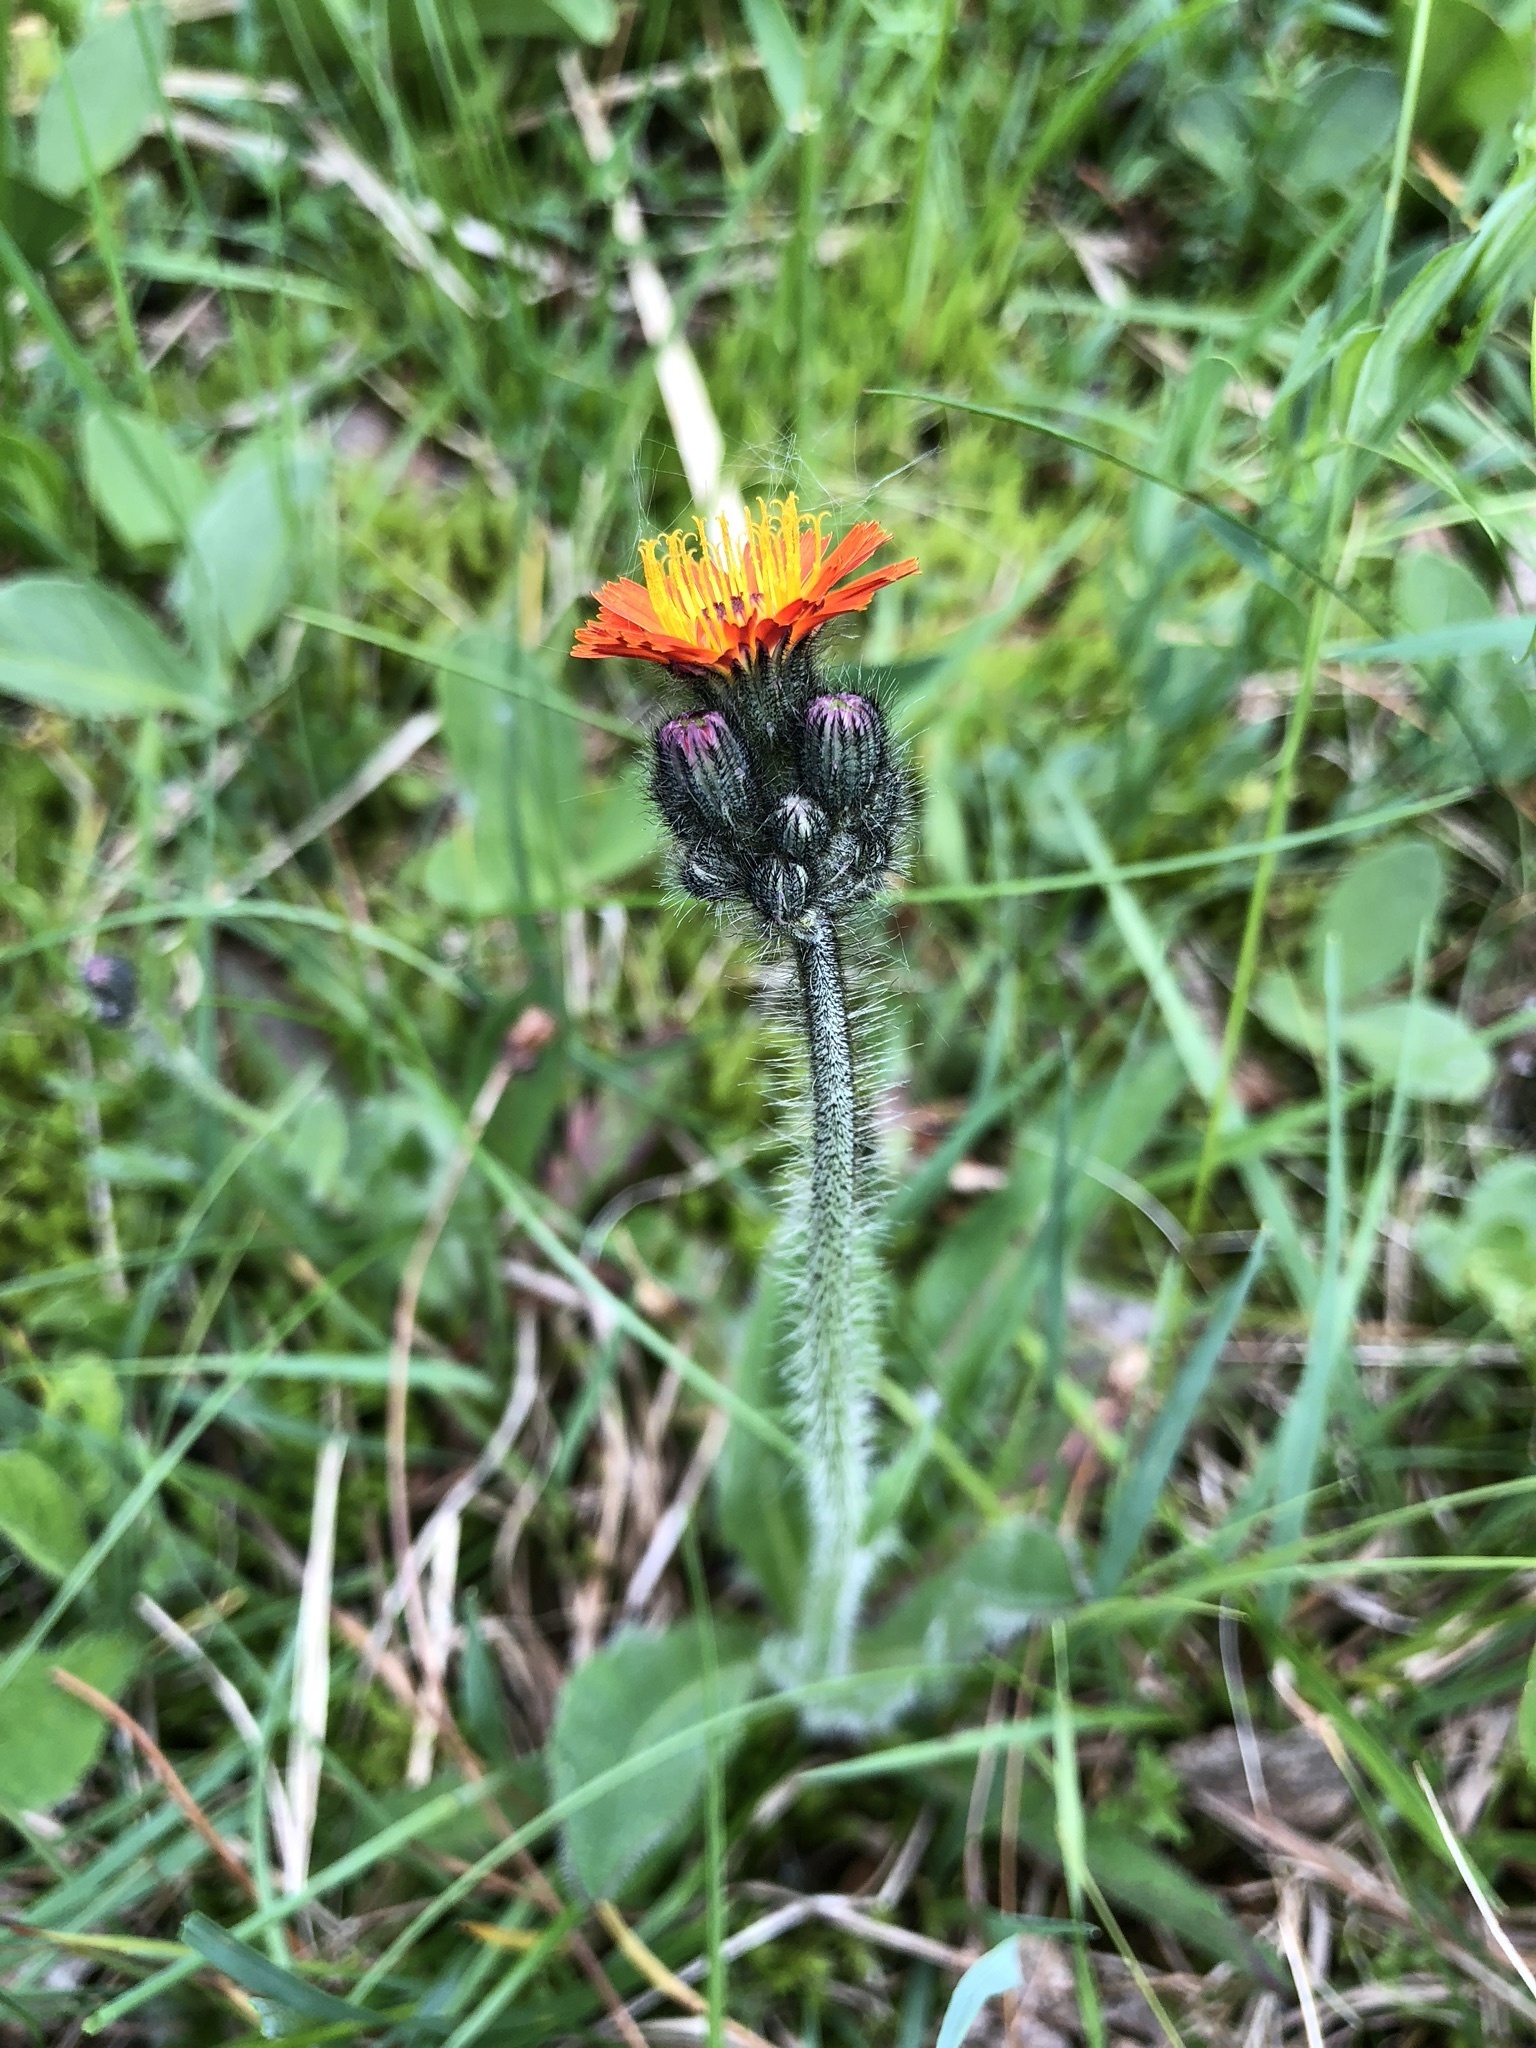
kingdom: Plantae
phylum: Tracheophyta
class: Magnoliopsida
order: Asterales
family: Asteraceae
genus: Pilosella
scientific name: Pilosella aurantiaca
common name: Fox-and-cubs
